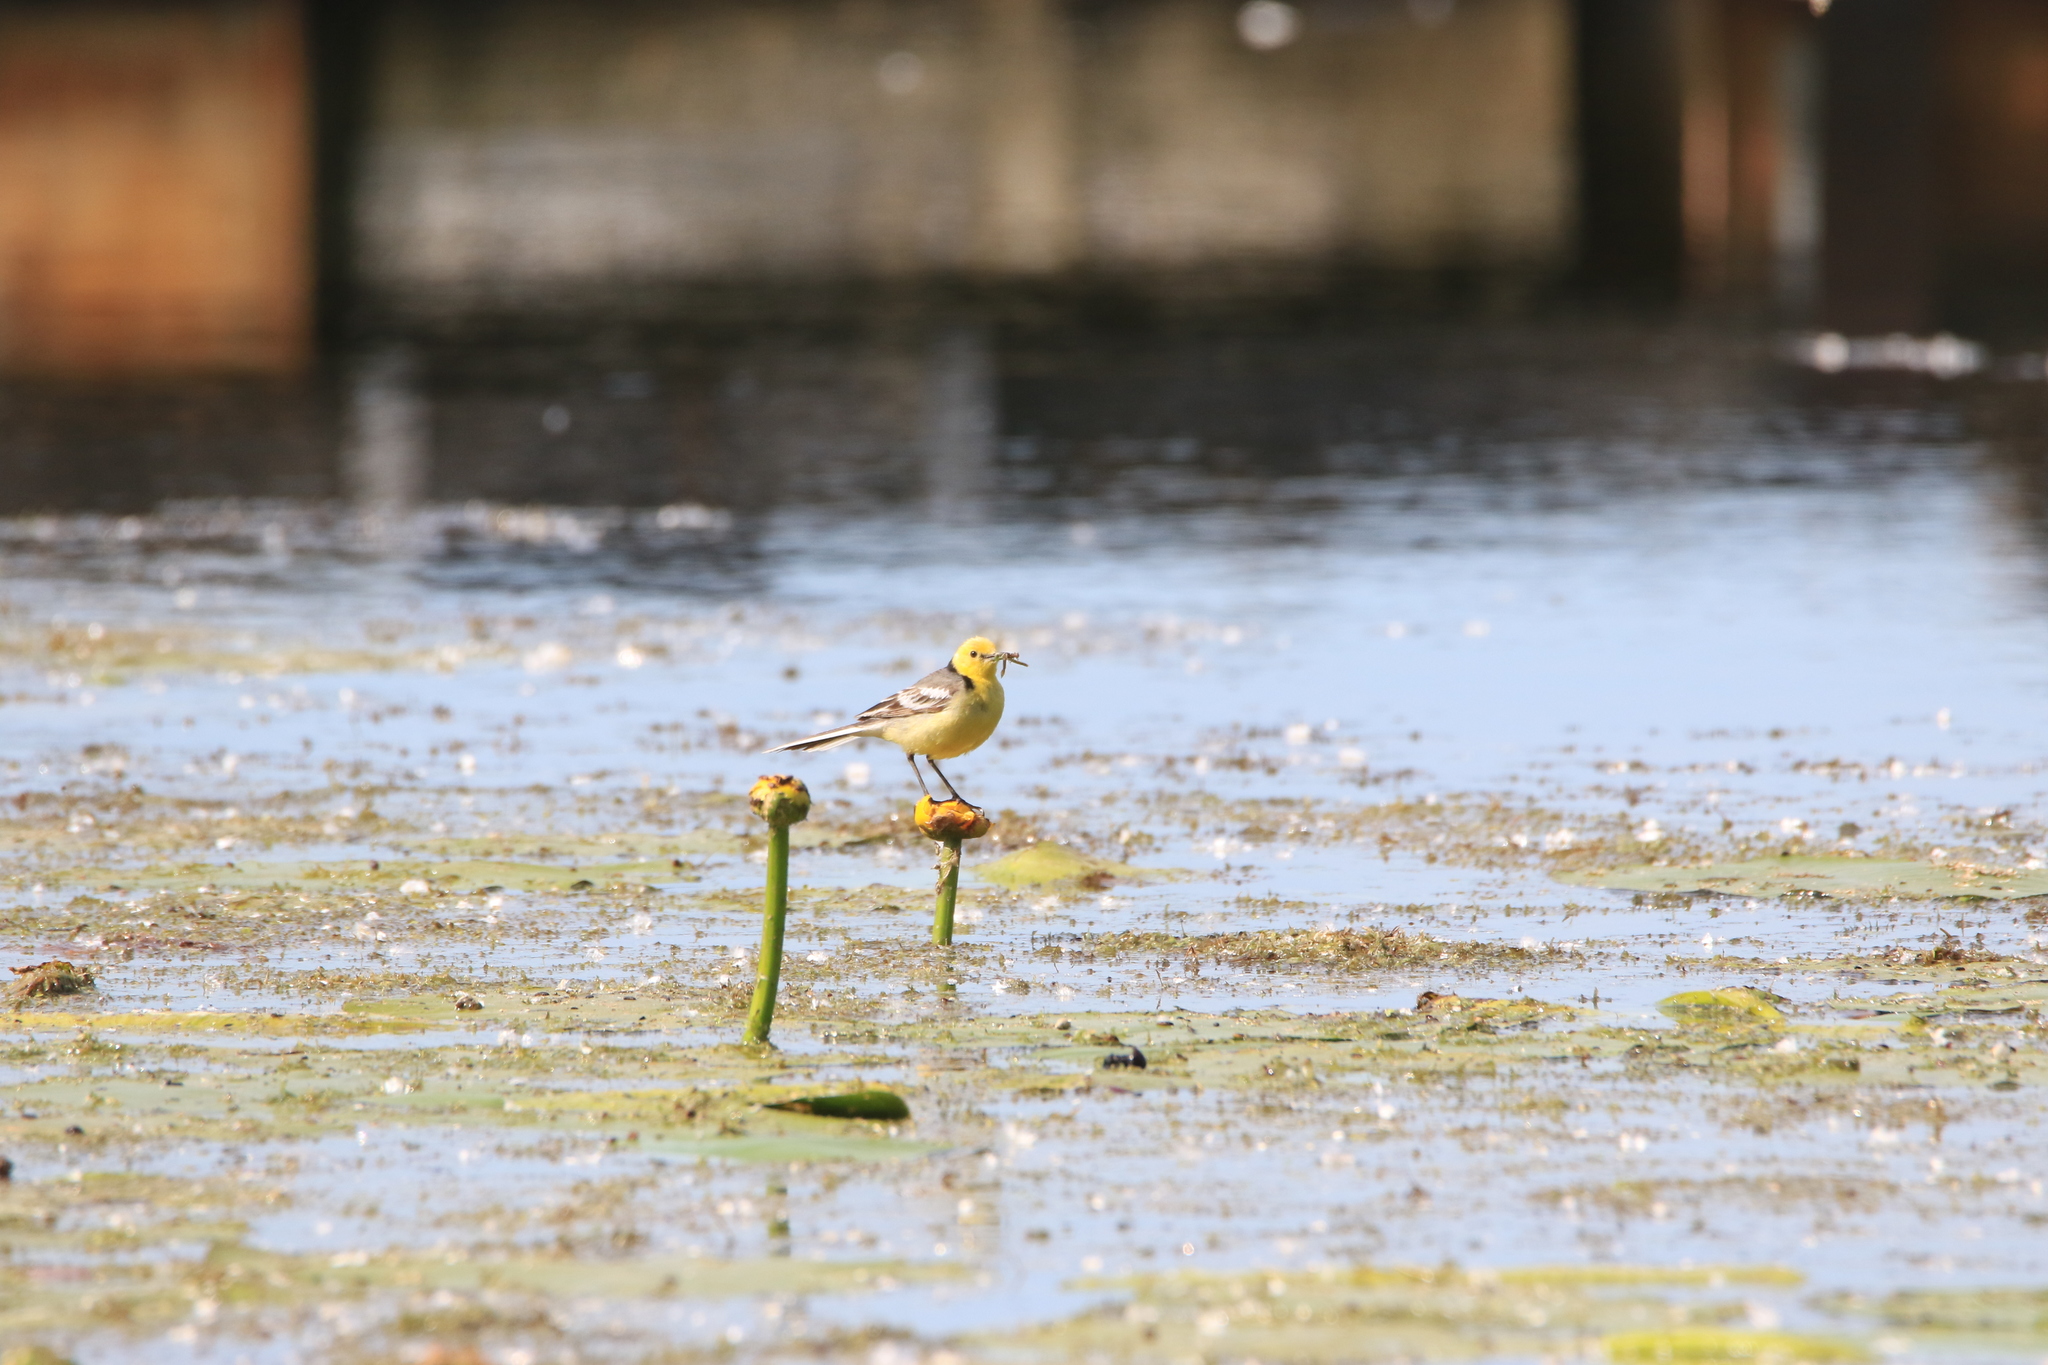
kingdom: Animalia
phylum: Chordata
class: Aves
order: Passeriformes
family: Motacillidae
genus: Motacilla
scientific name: Motacilla citreola
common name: Citrine wagtail
